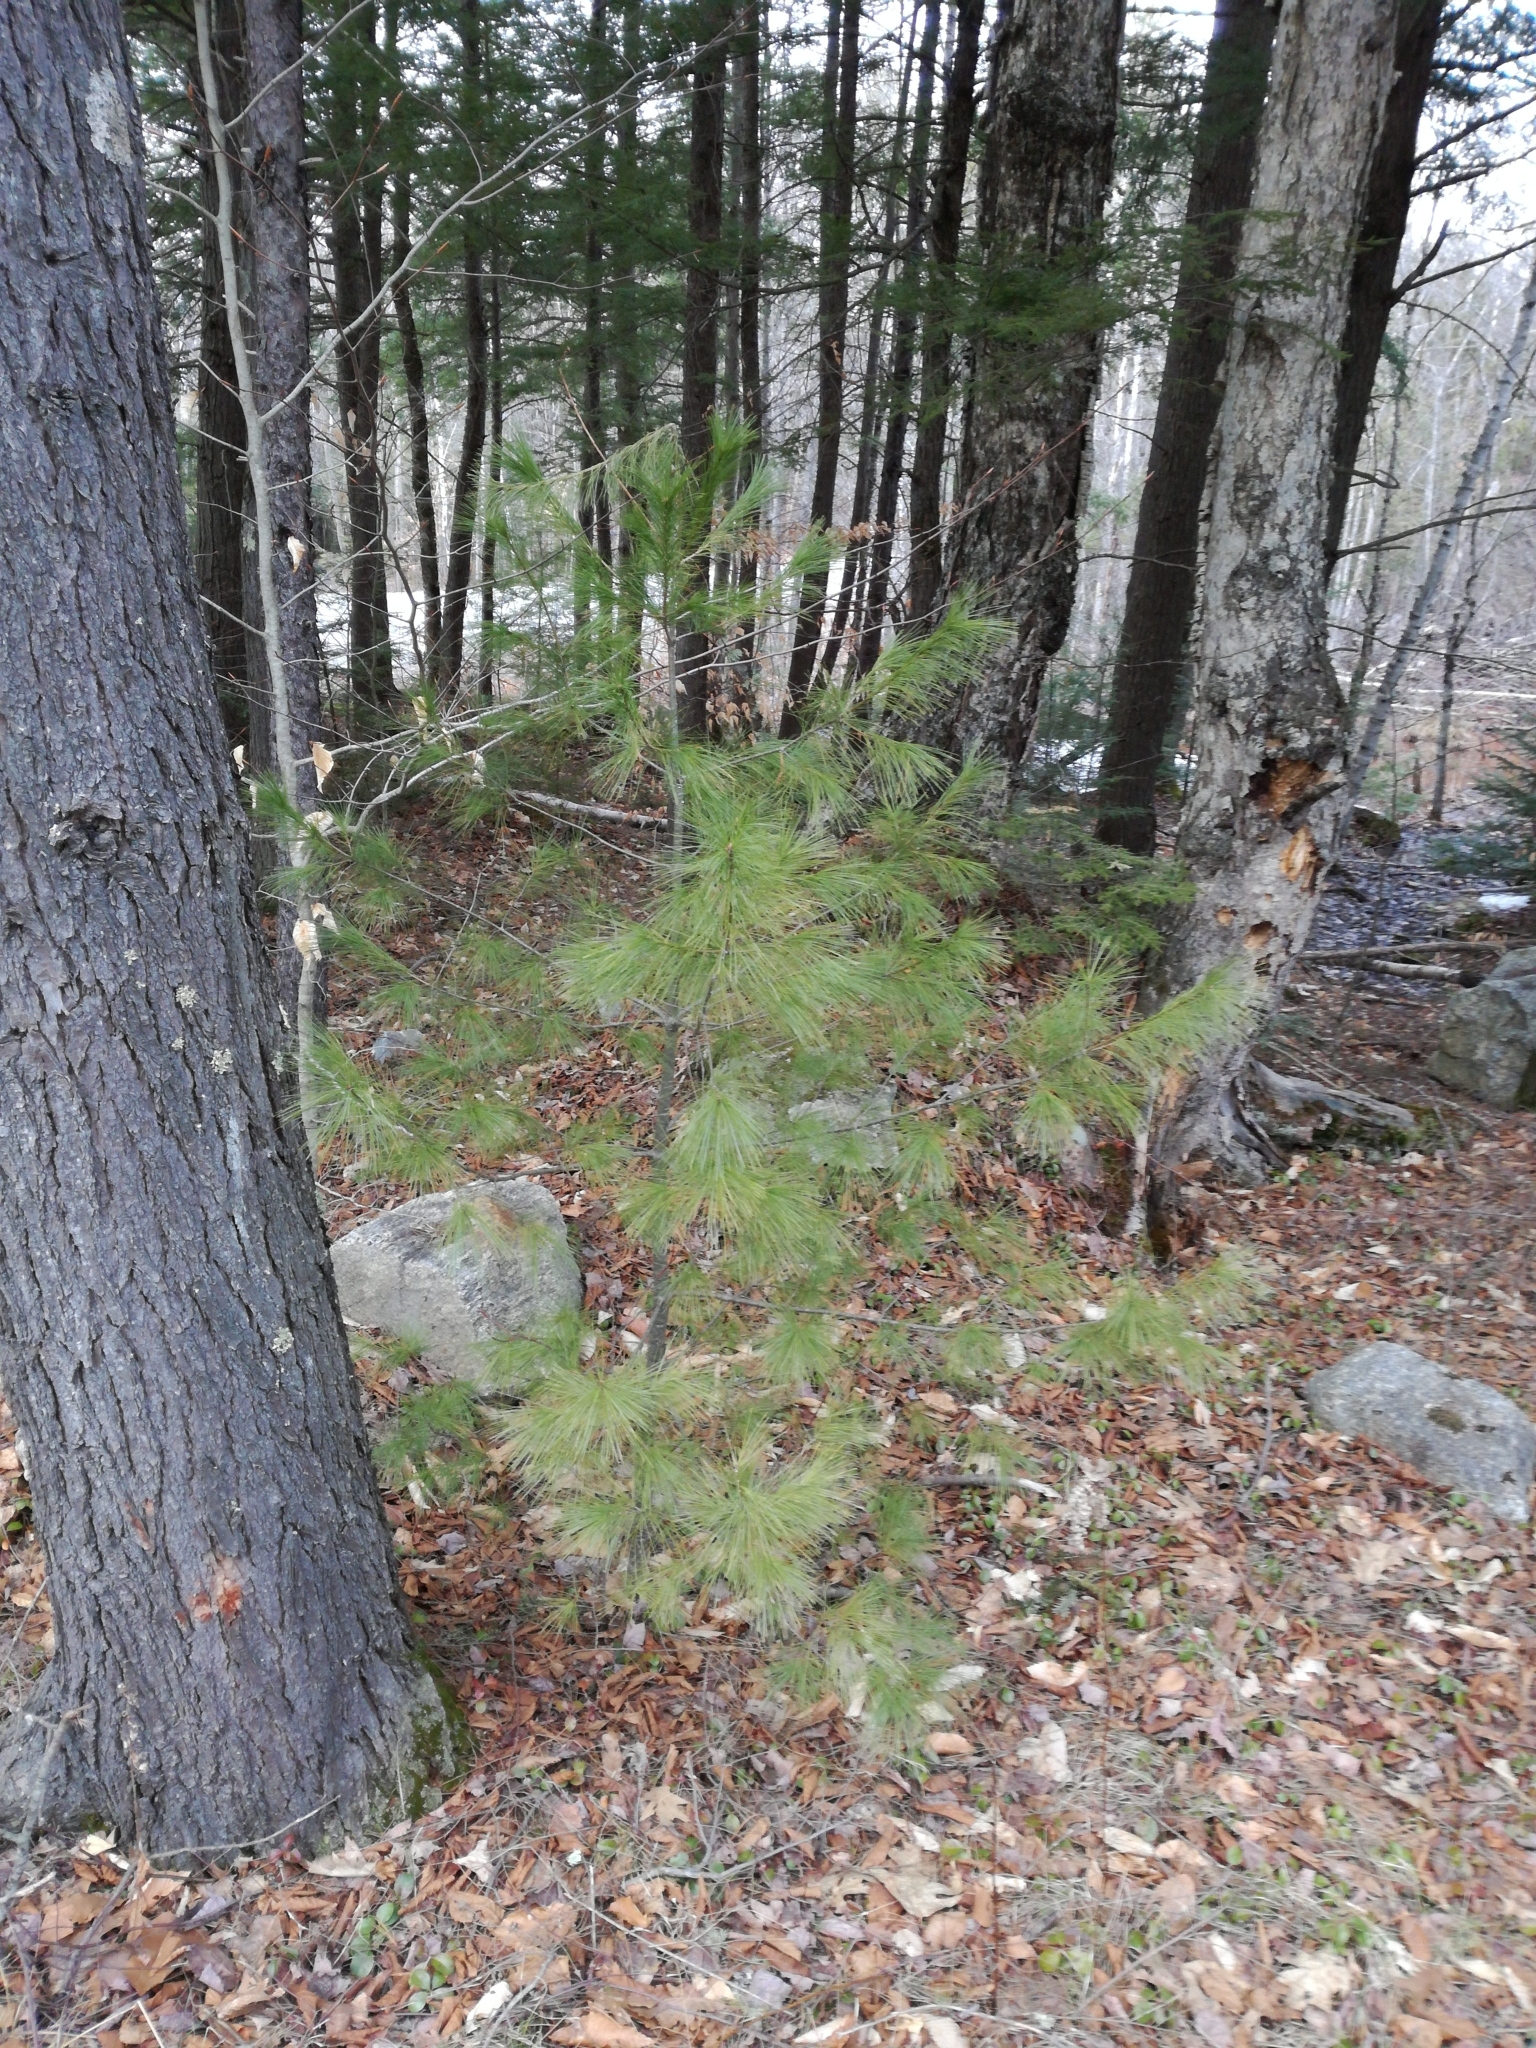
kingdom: Plantae
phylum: Tracheophyta
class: Pinopsida
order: Pinales
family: Pinaceae
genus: Pinus
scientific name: Pinus strobus
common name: Weymouth pine
